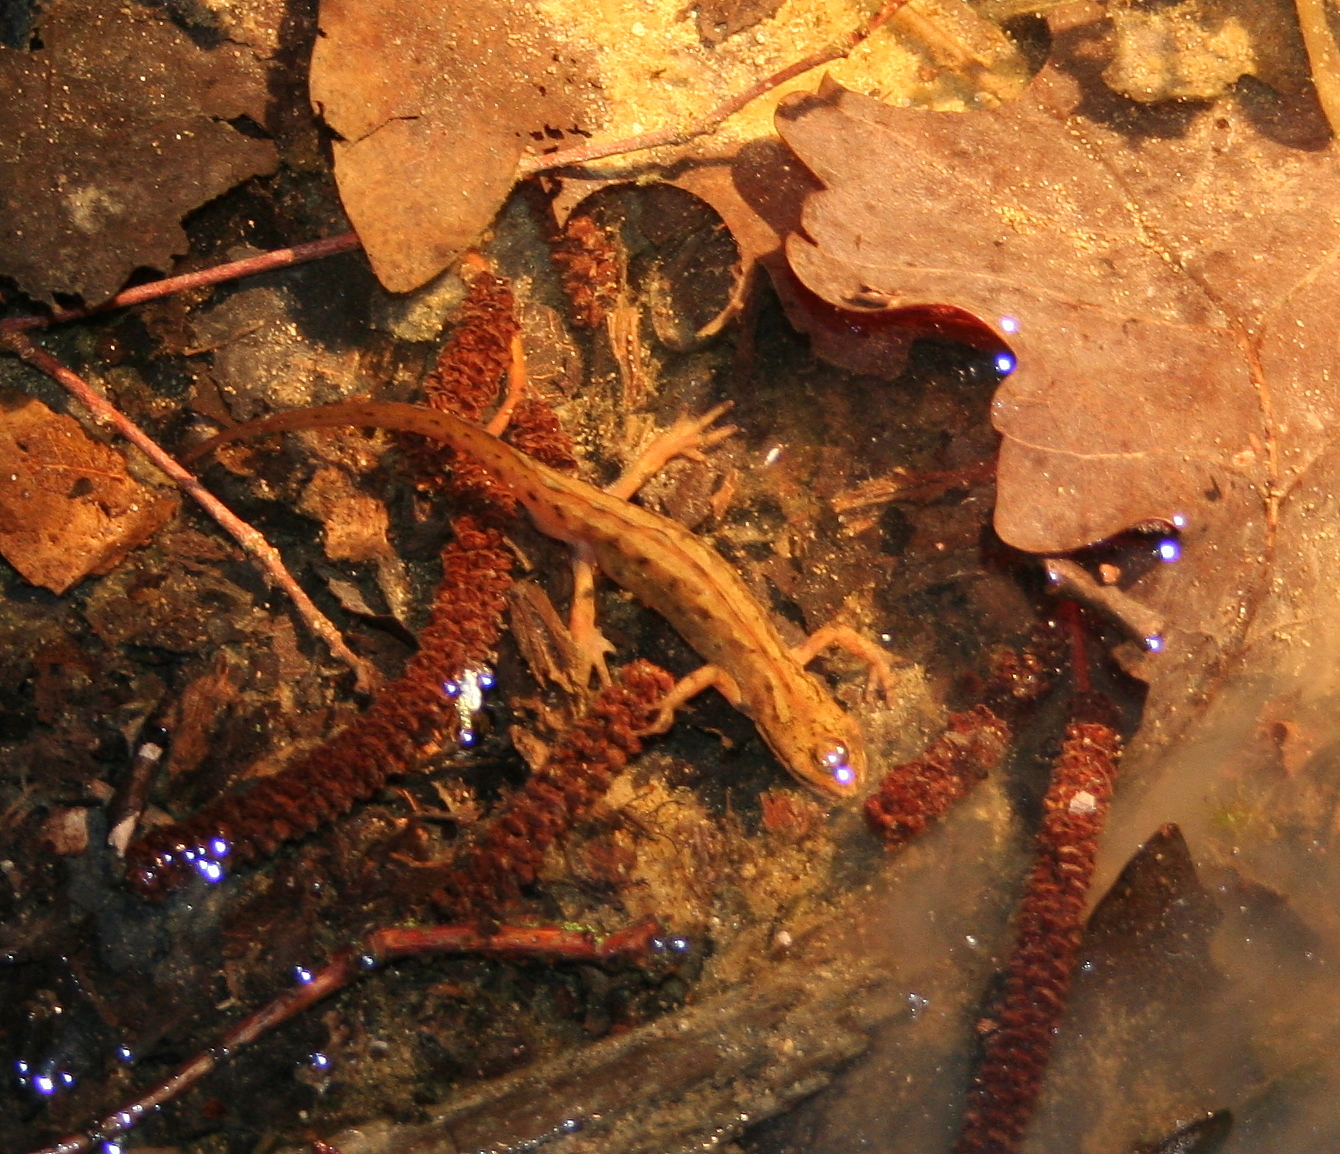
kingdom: Animalia
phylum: Chordata
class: Amphibia
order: Caudata
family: Salamandridae
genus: Lissotriton
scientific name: Lissotriton vulgaris
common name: Smooth newt
